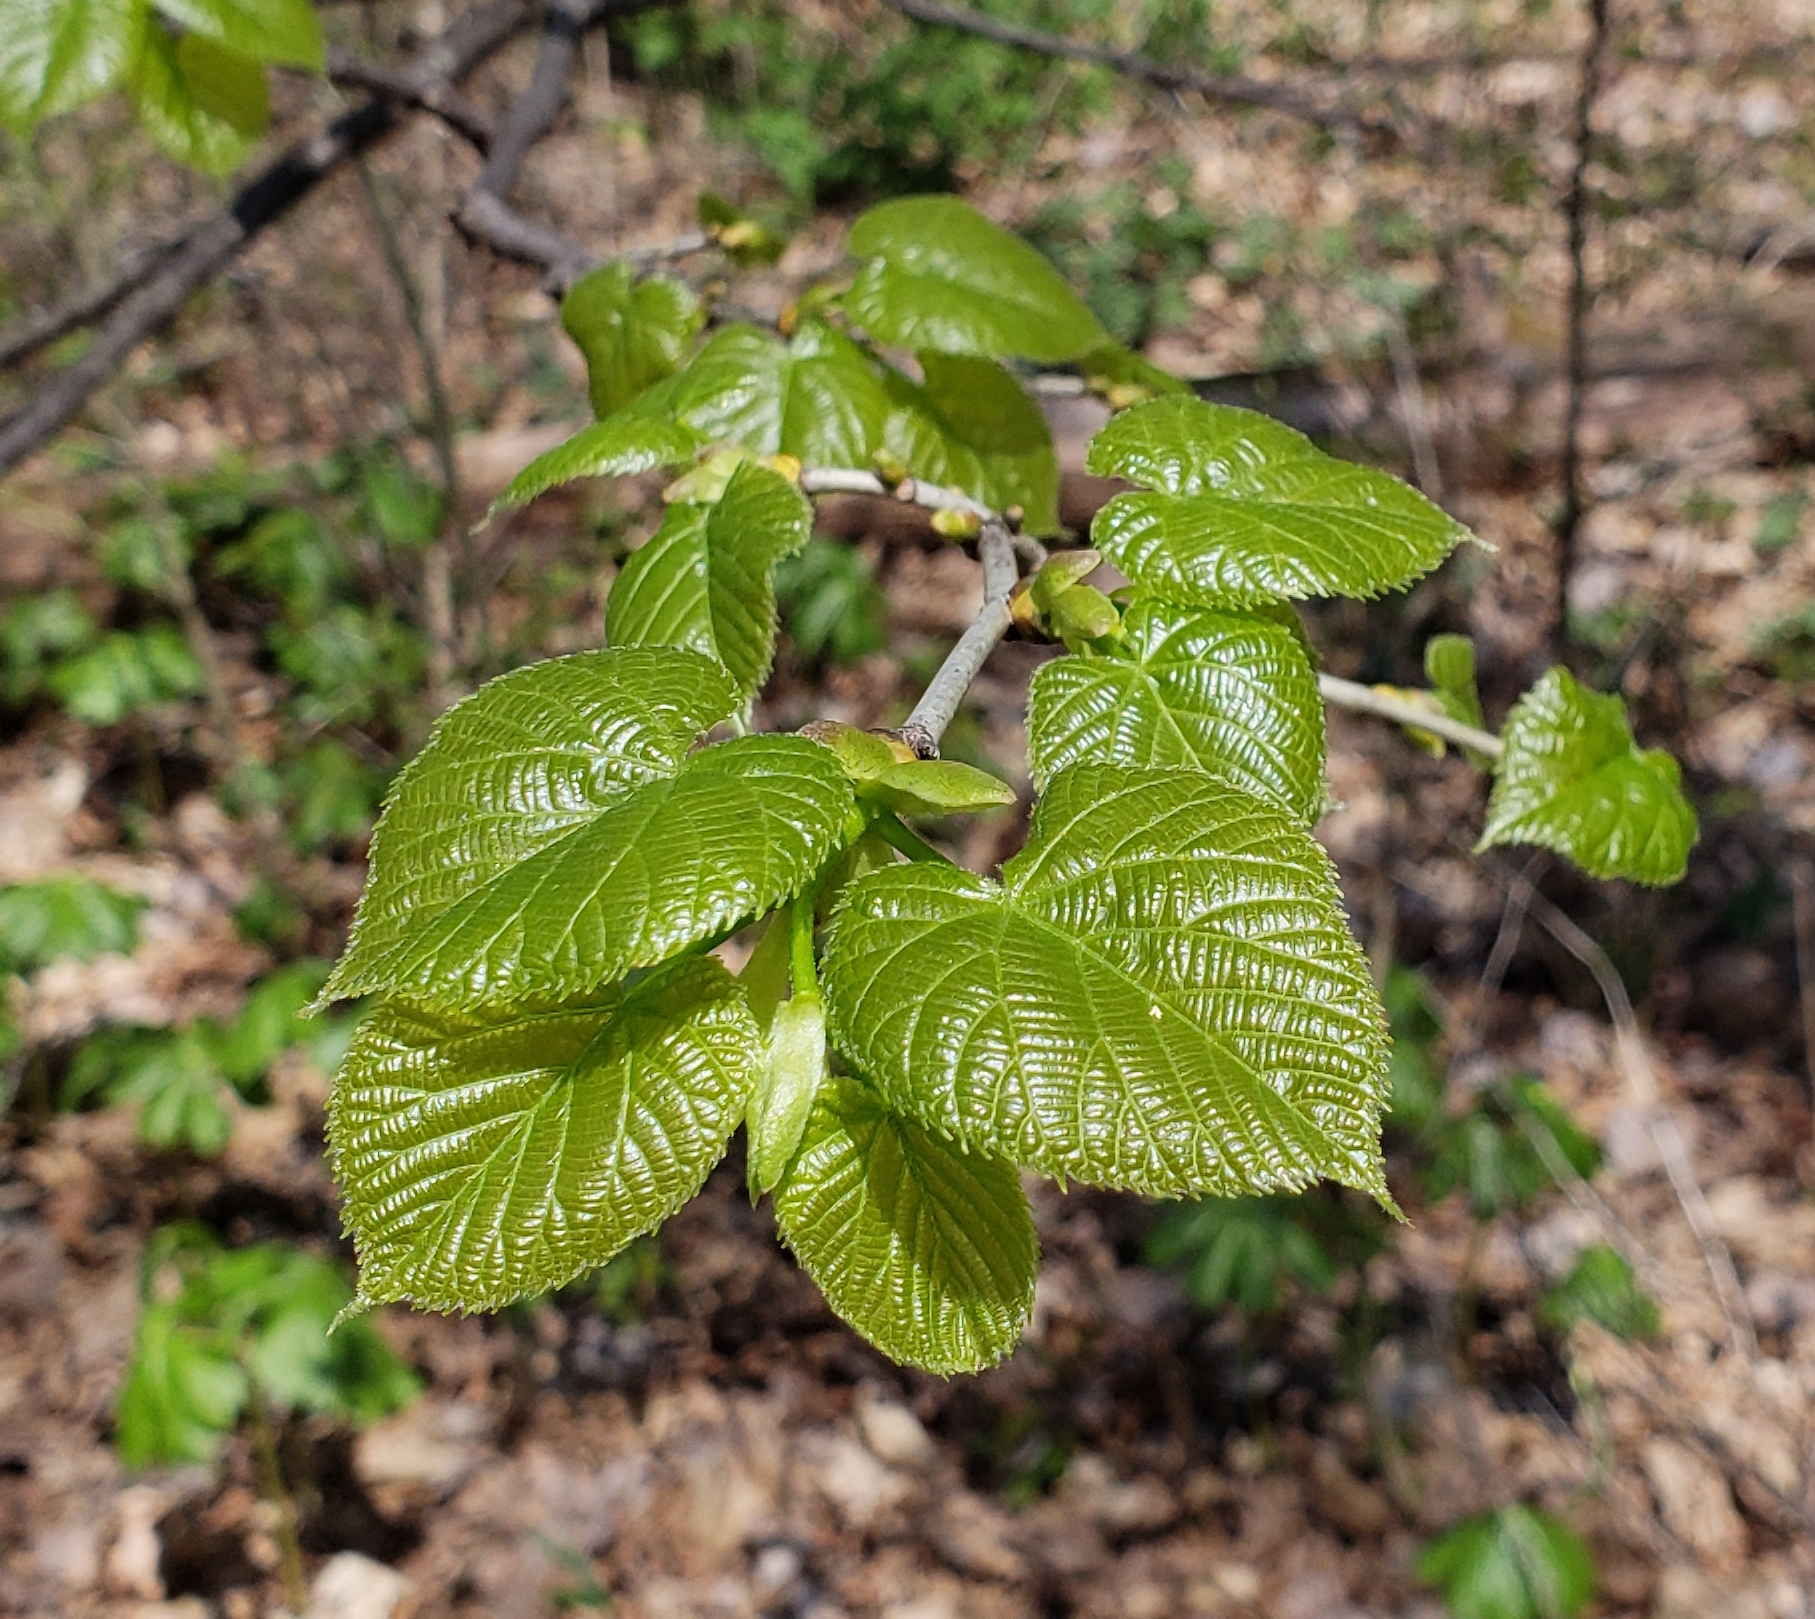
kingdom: Plantae
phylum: Tracheophyta
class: Magnoliopsida
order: Malvales
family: Malvaceae
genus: Tilia
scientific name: Tilia americana
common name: Basswood
